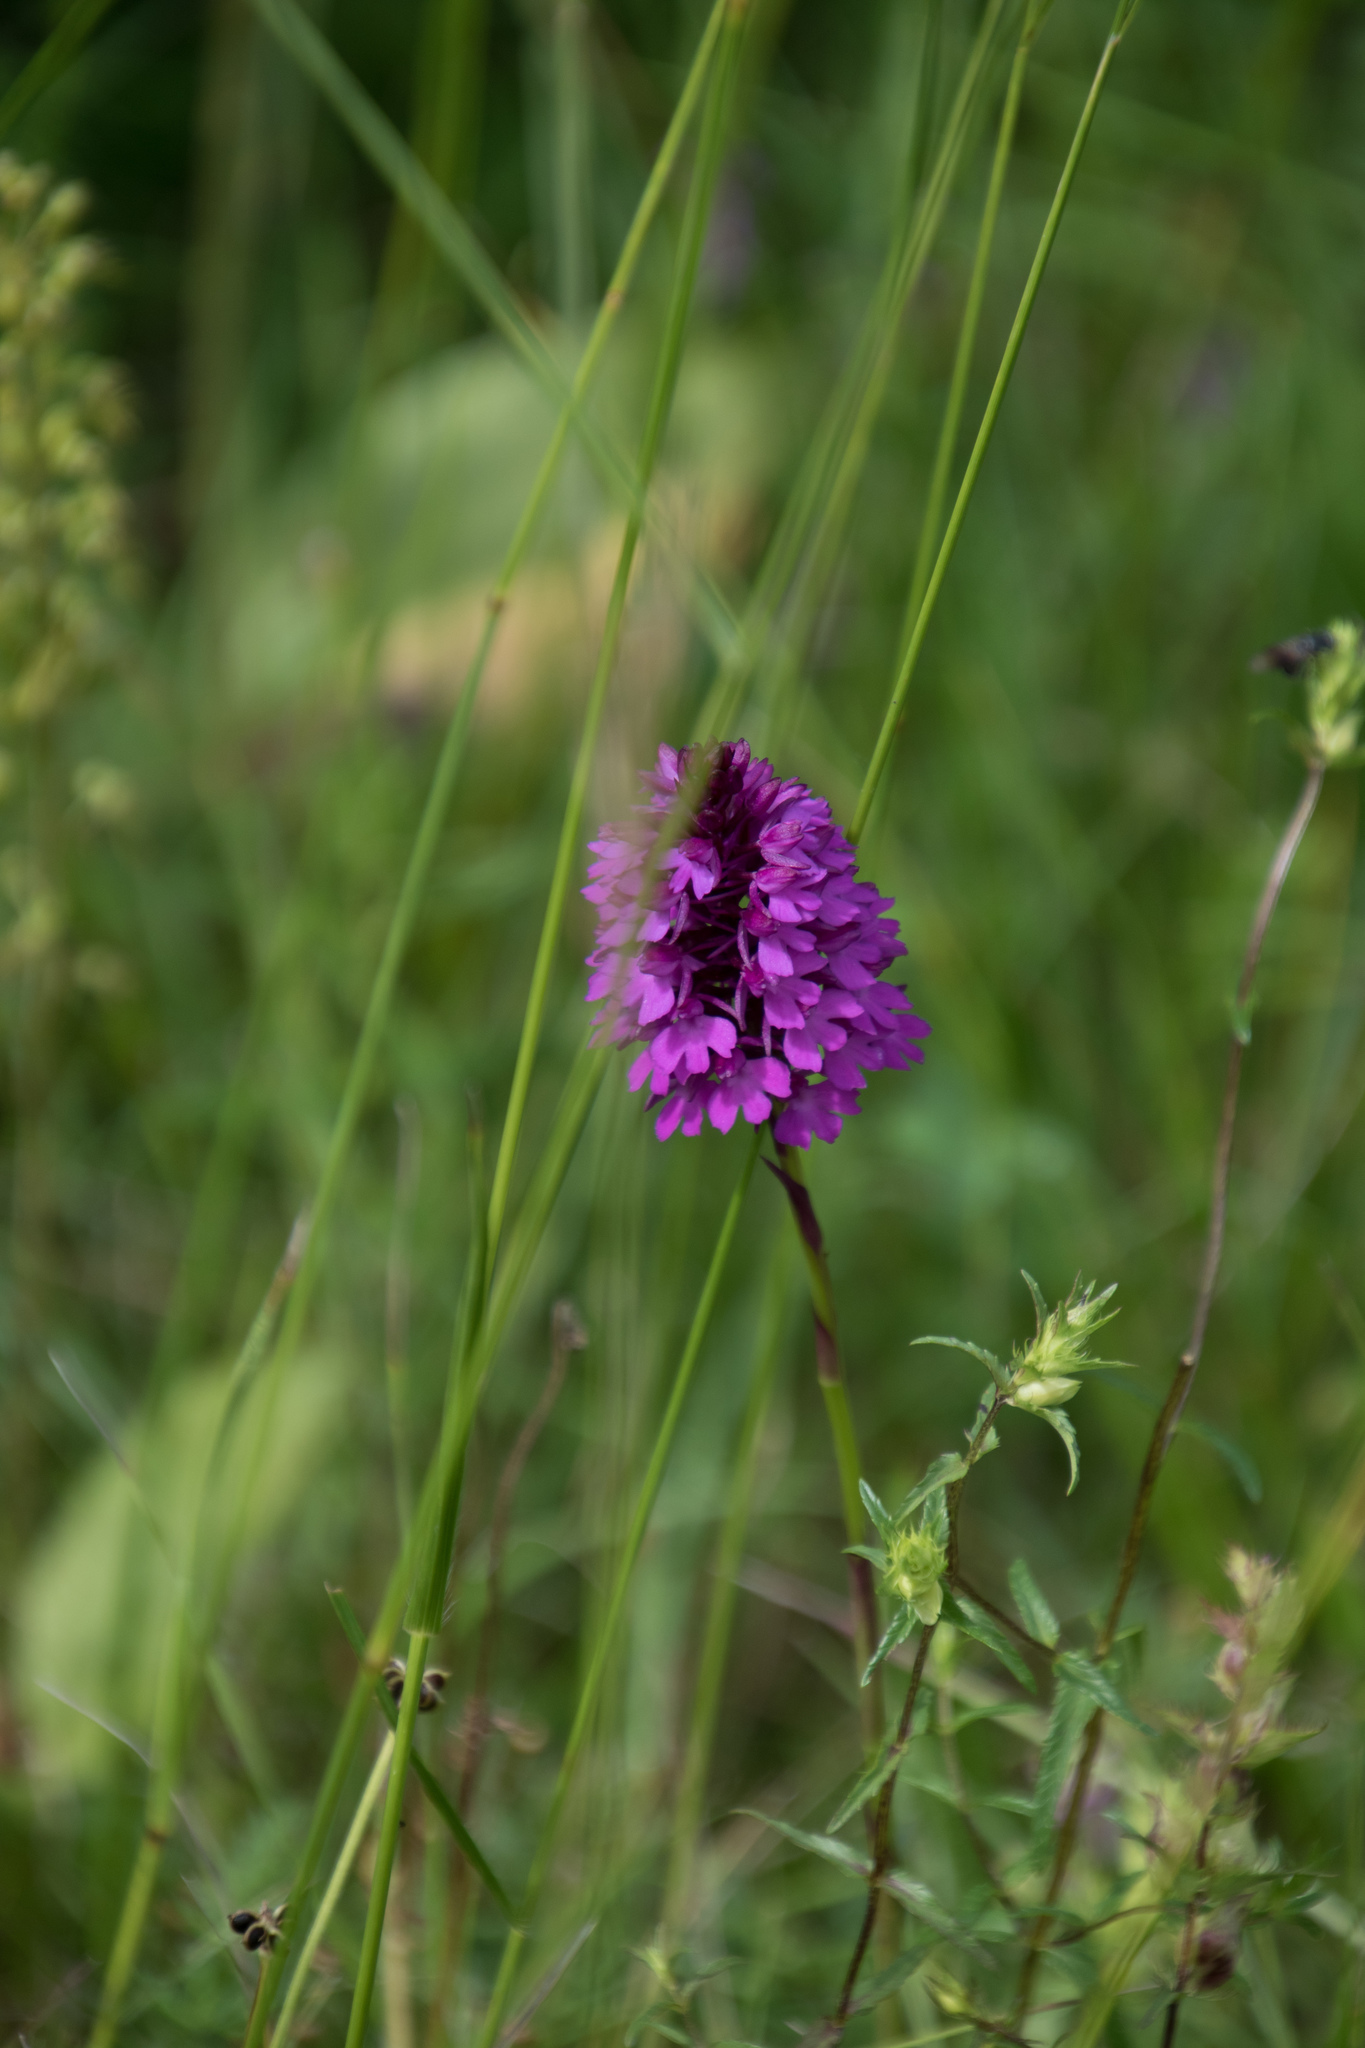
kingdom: Plantae
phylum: Tracheophyta
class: Liliopsida
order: Asparagales
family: Orchidaceae
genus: Anacamptis
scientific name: Anacamptis pyramidalis
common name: Pyramidal orchid
